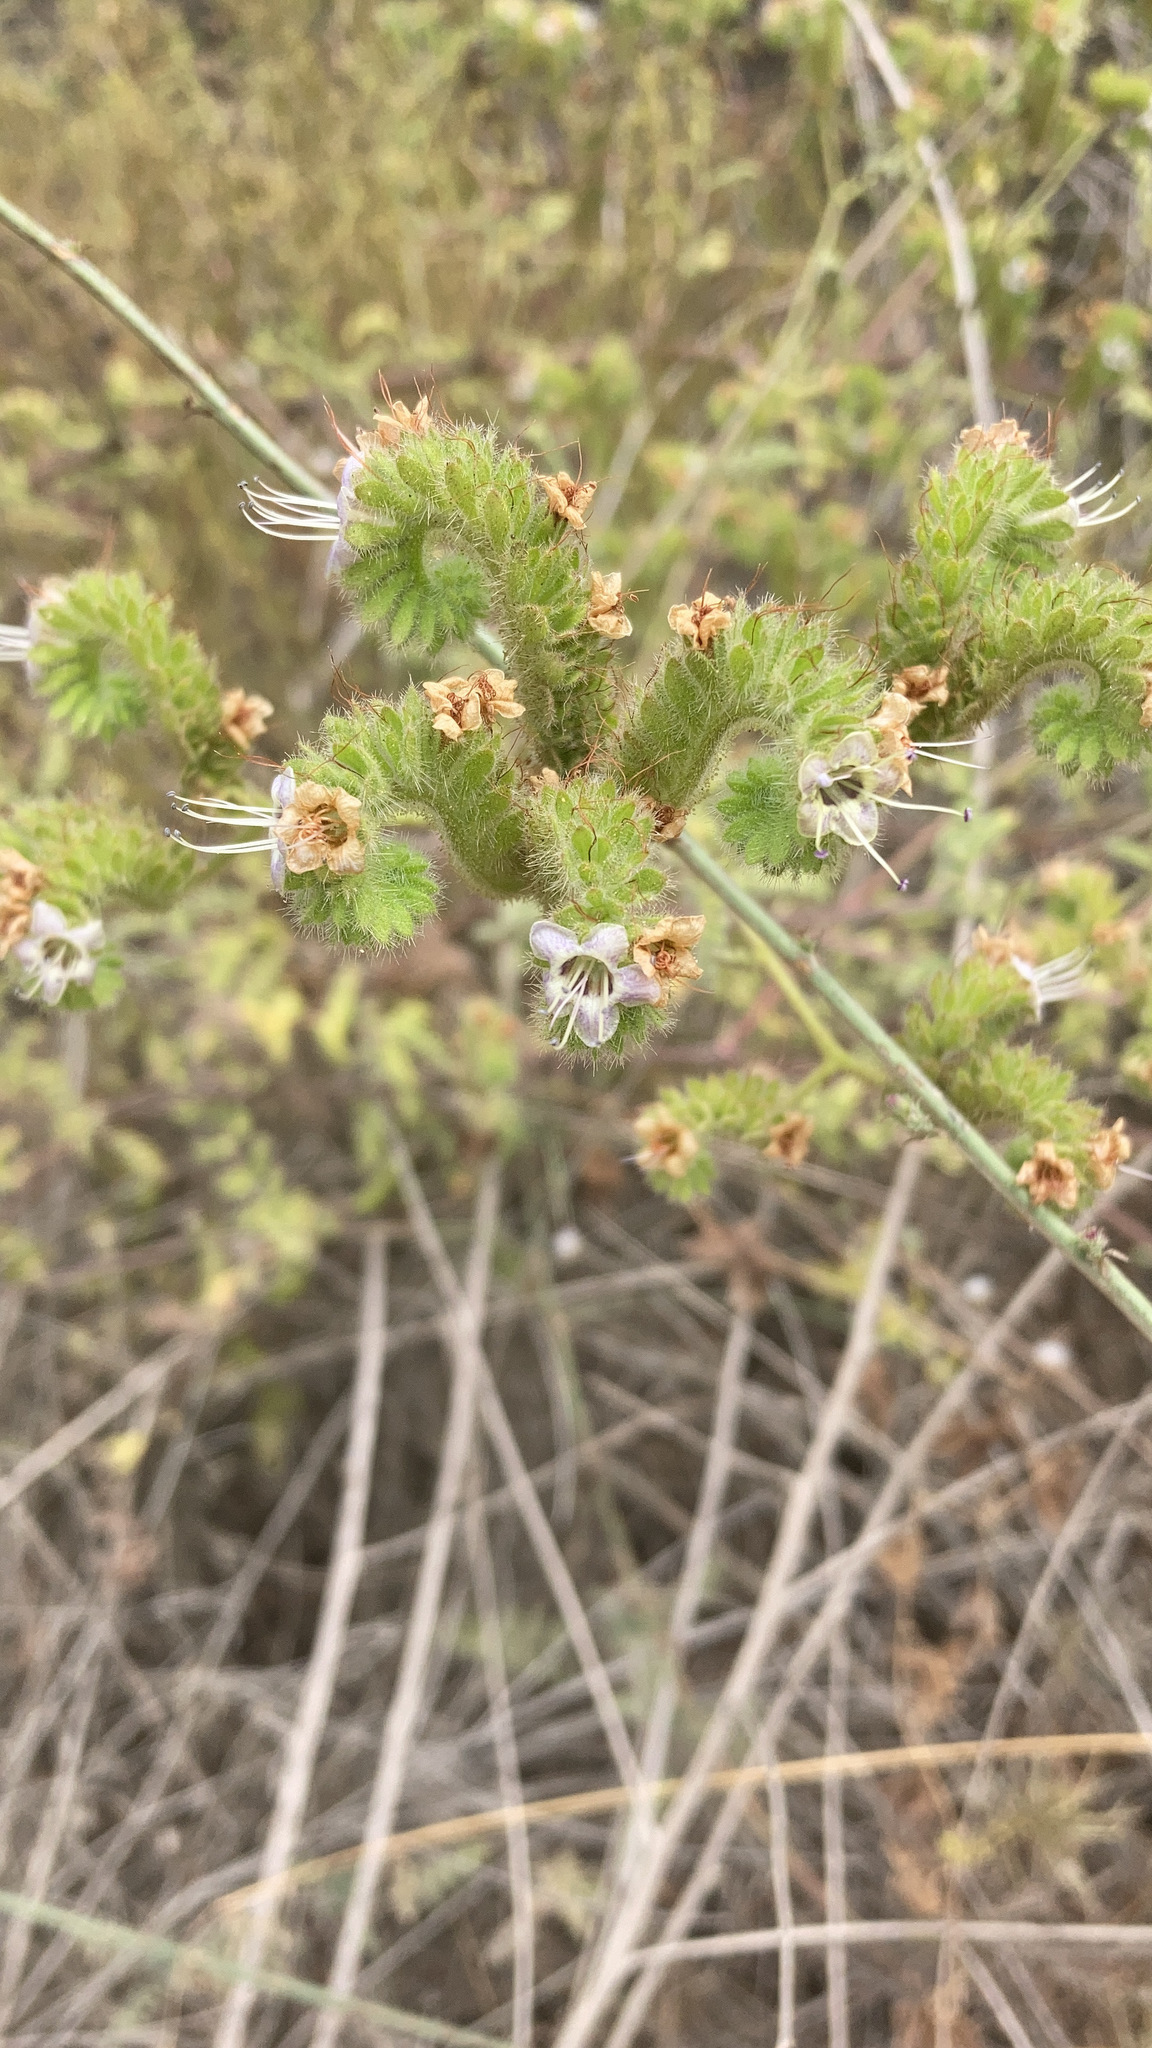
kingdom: Plantae
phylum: Tracheophyta
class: Magnoliopsida
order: Boraginales
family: Hydrophyllaceae
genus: Phacelia
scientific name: Phacelia ramosissima
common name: Branching phacelia
